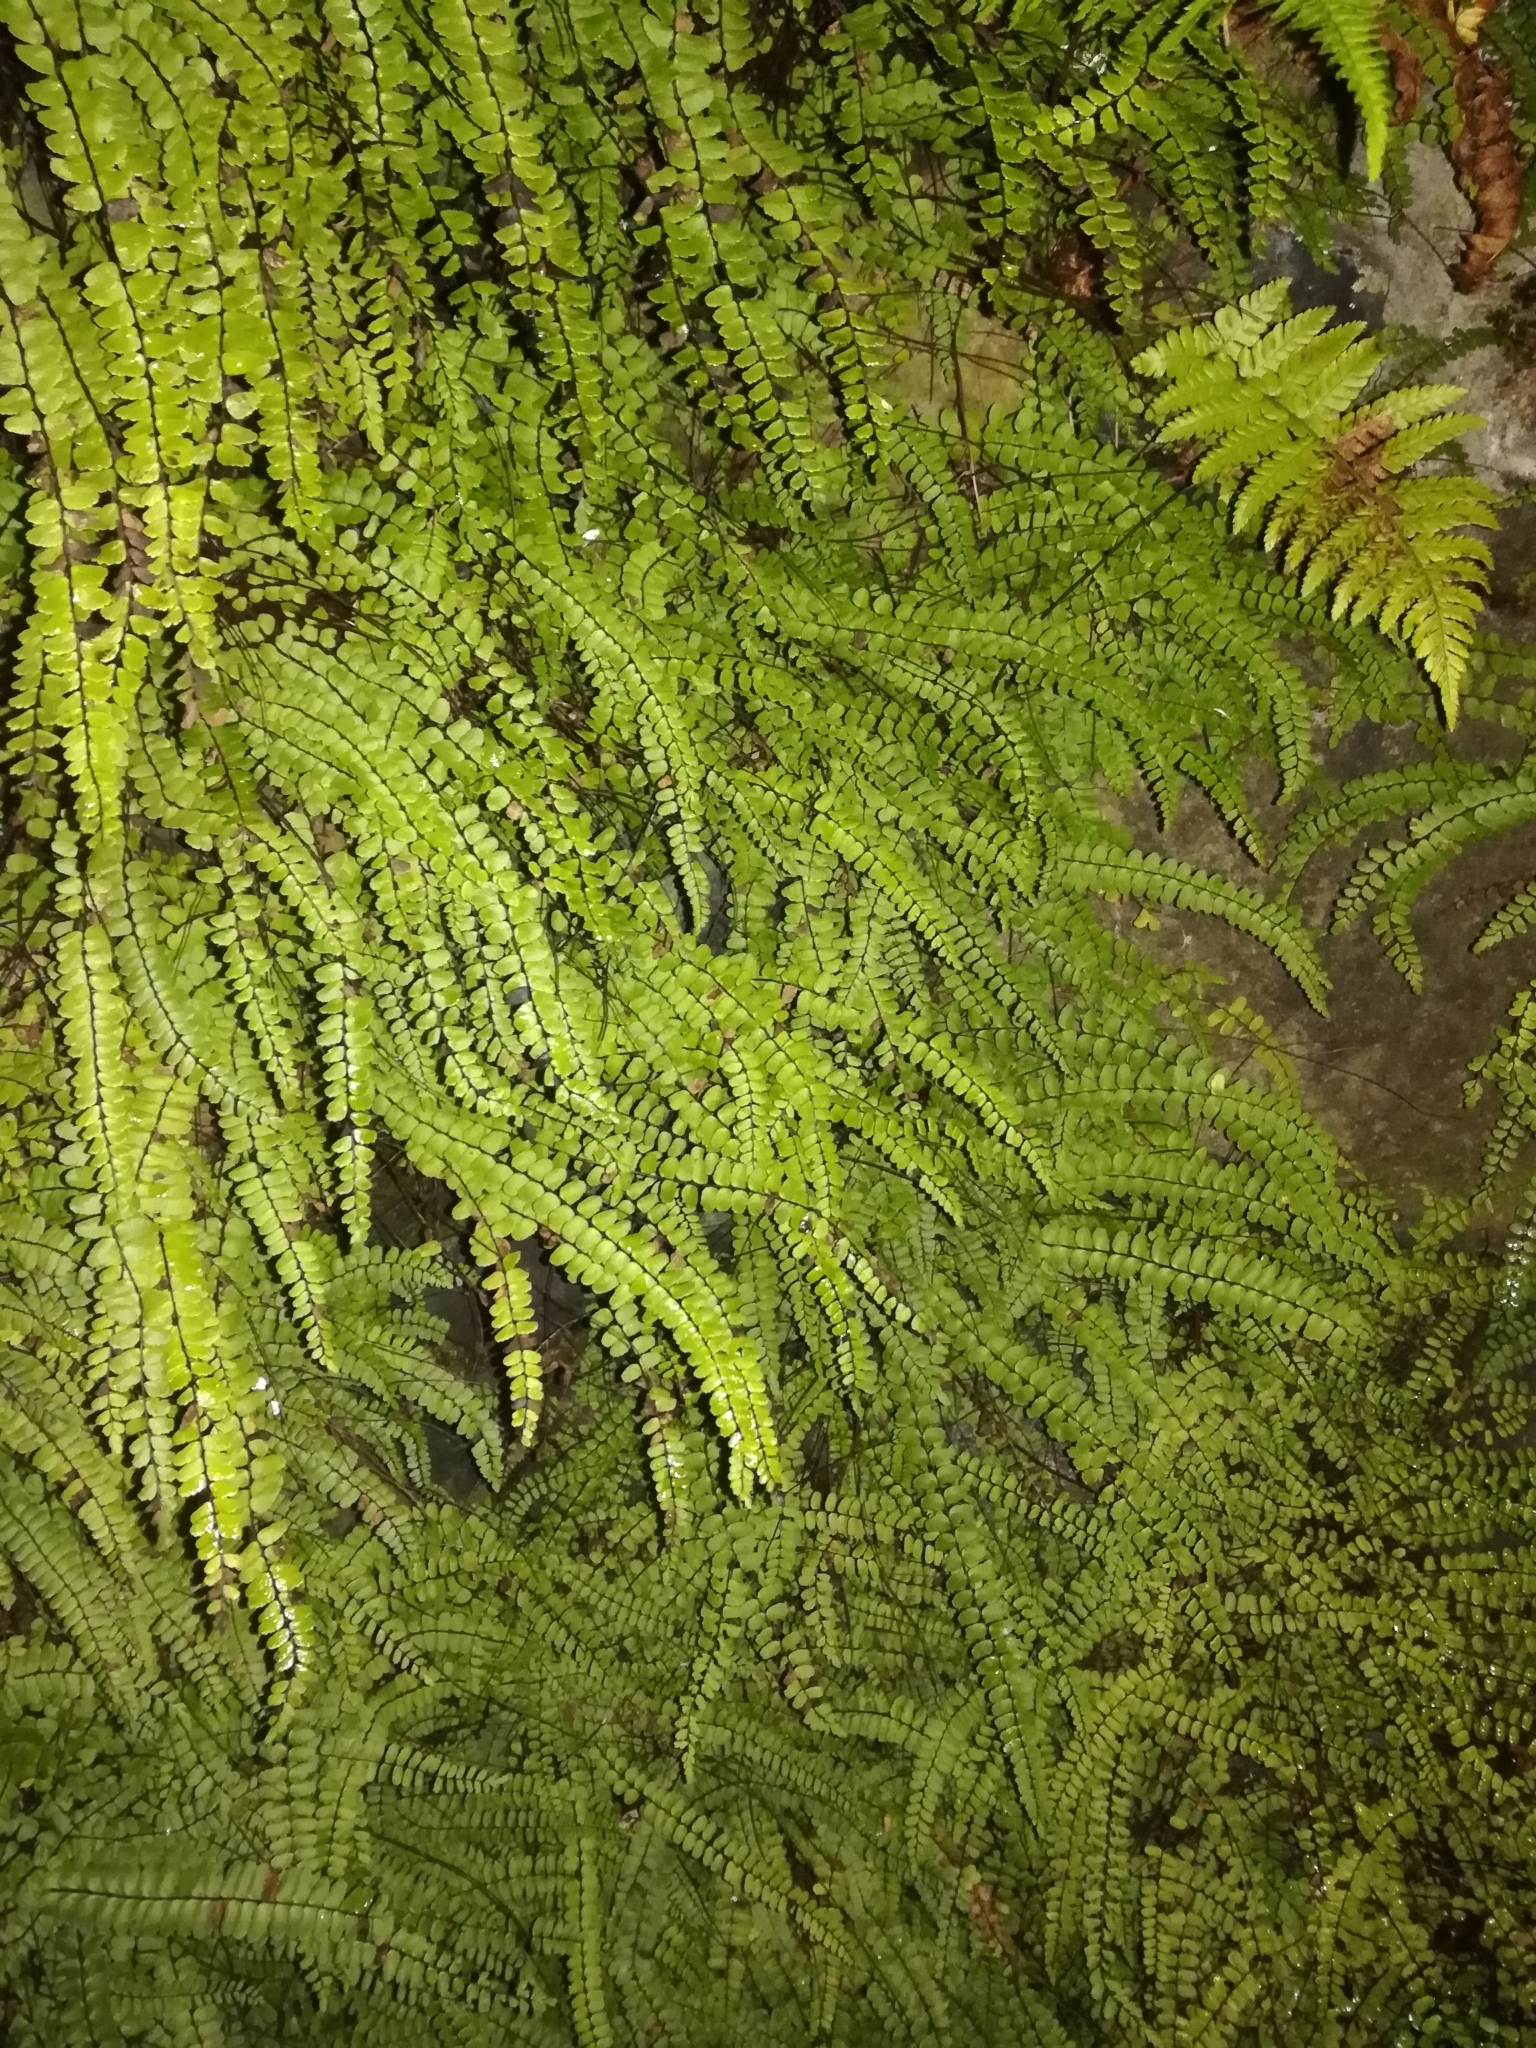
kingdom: Plantae
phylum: Tracheophyta
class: Polypodiopsida
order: Polypodiales
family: Aspleniaceae
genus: Asplenium
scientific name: Asplenium trichomanes
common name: Maidenhair spleenwort
